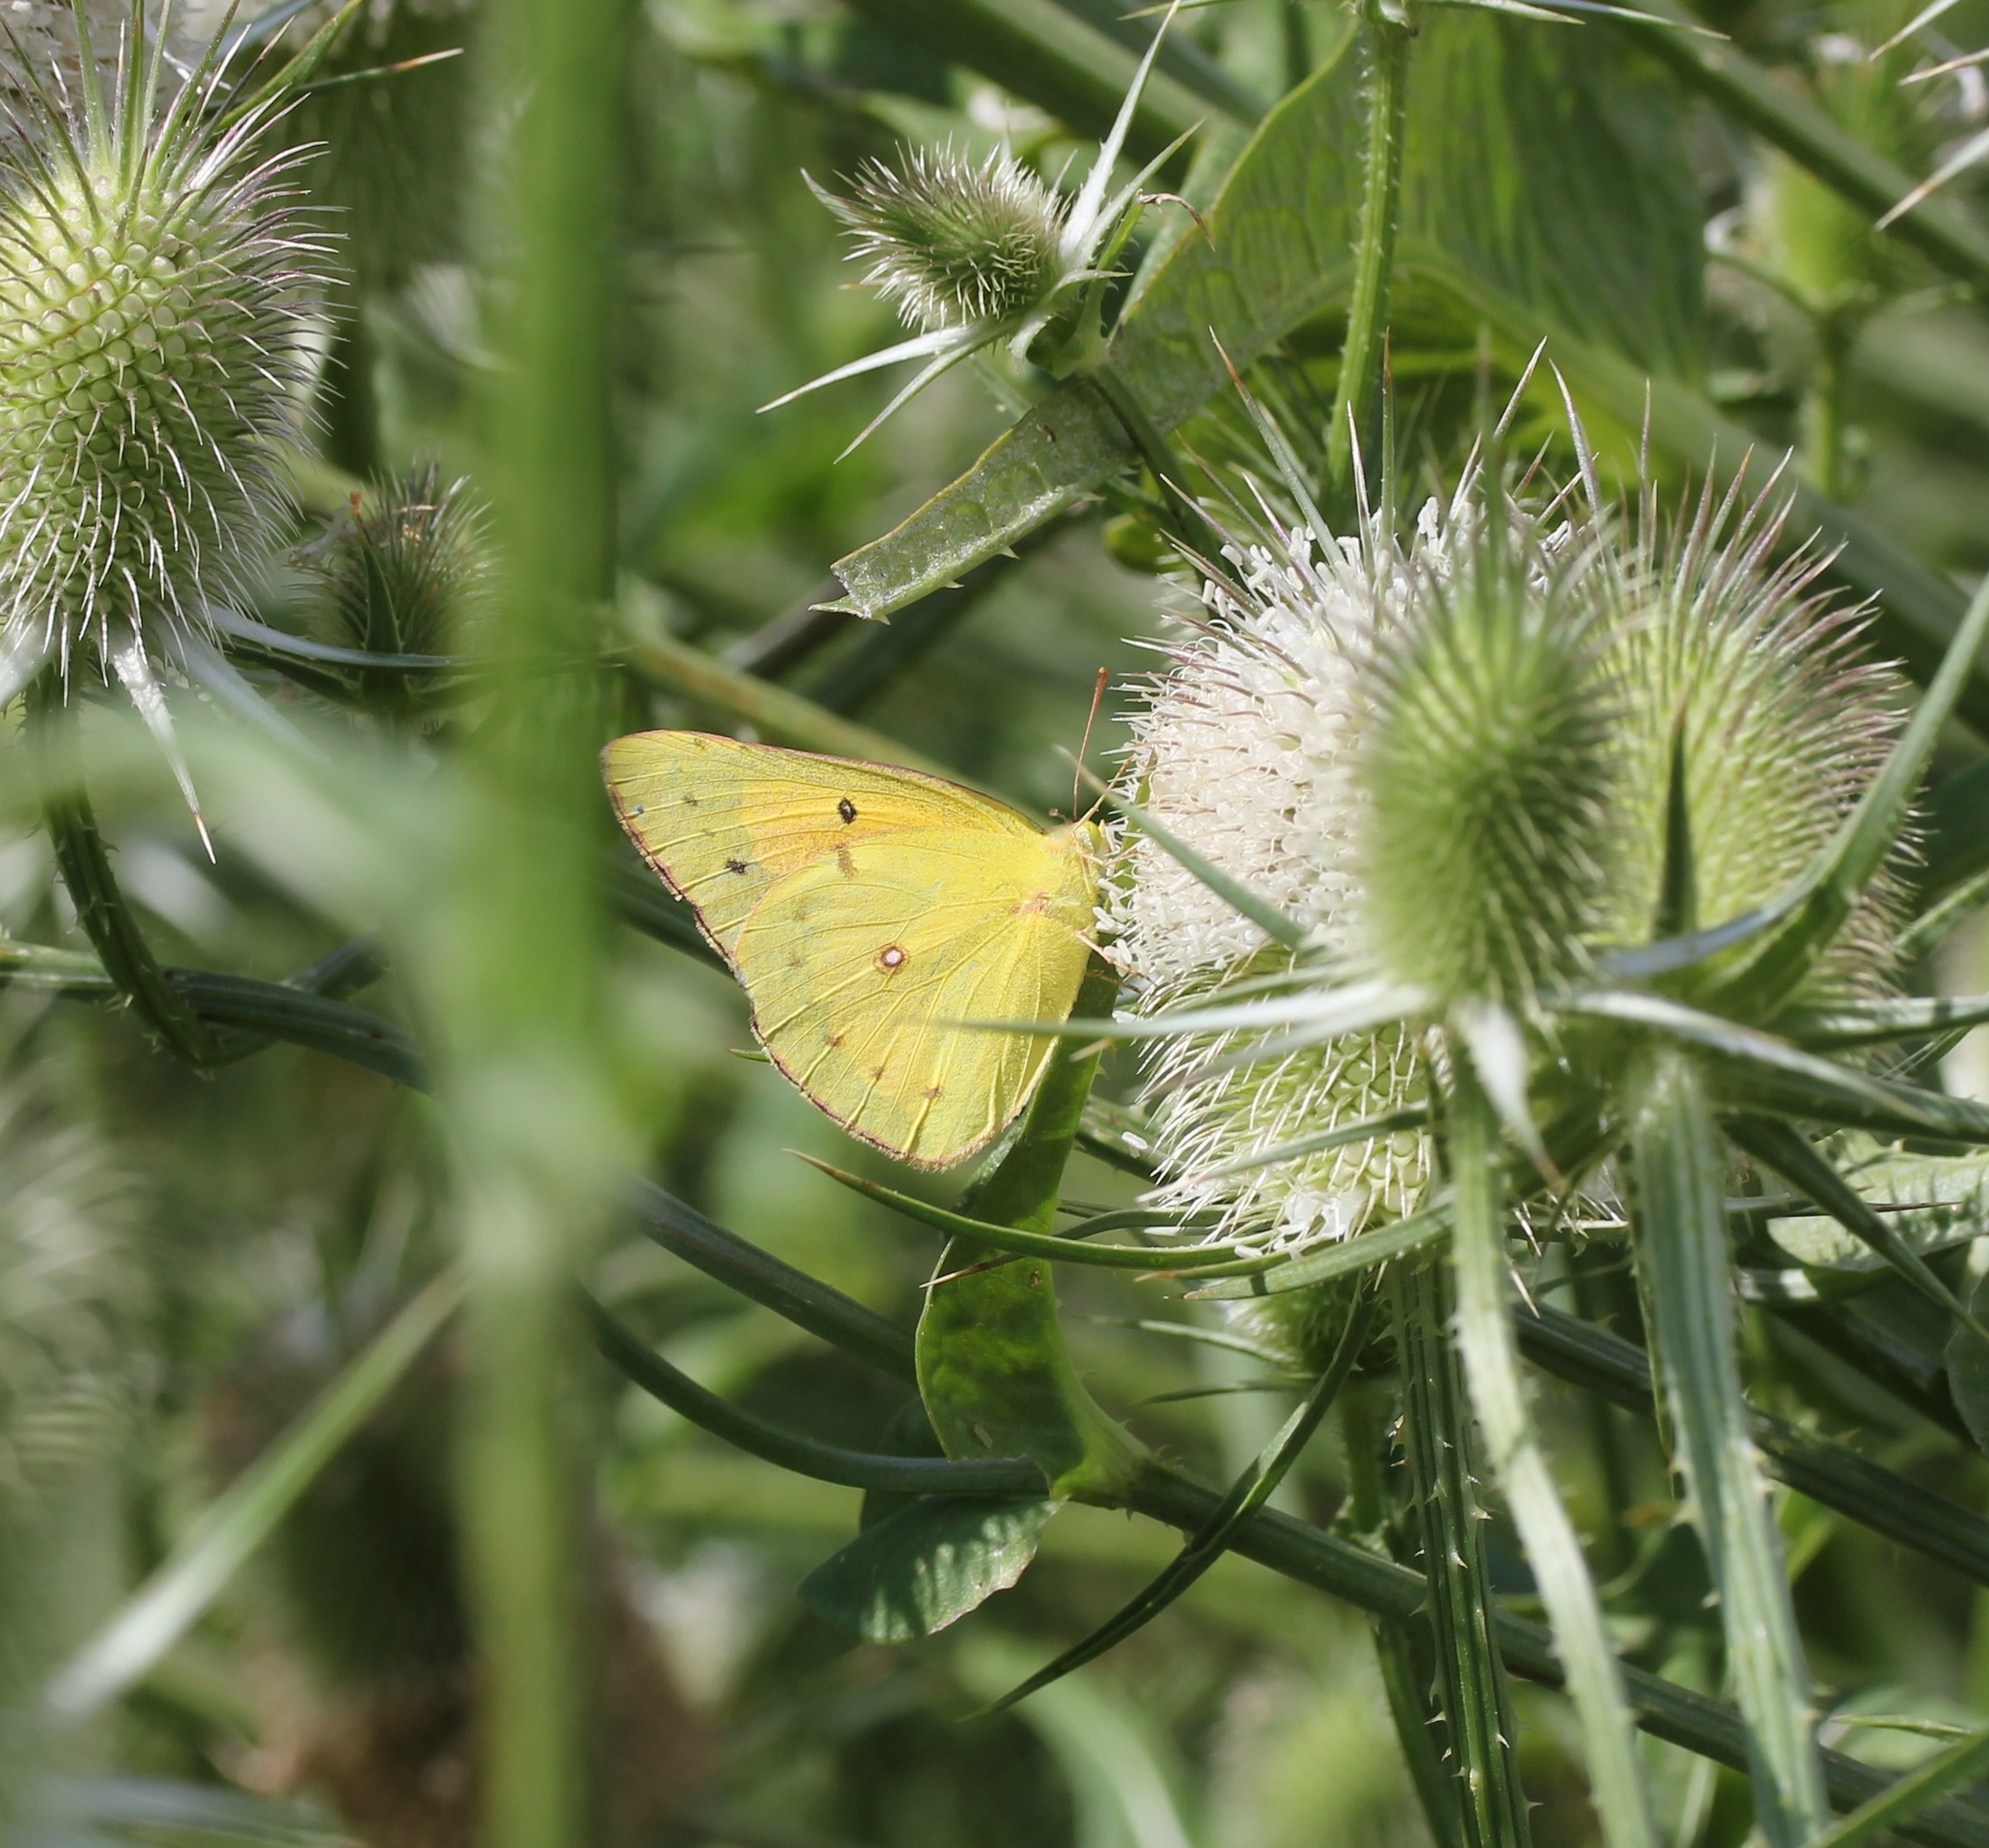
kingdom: Animalia
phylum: Arthropoda
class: Insecta
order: Lepidoptera
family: Pieridae
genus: Colias
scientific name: Colias eurytheme
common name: Alfalfa butterfly
